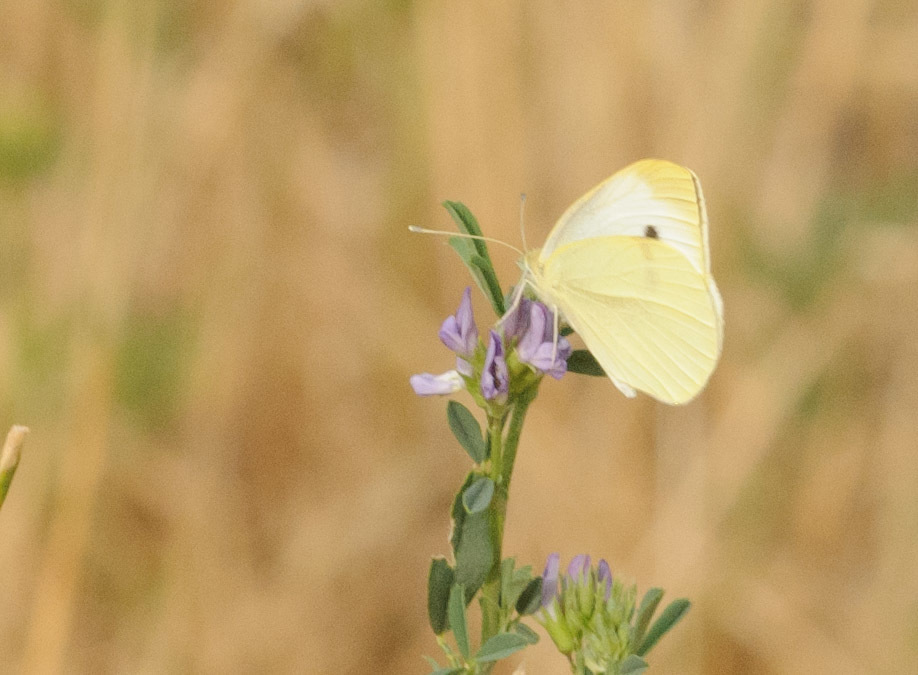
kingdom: Animalia
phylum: Arthropoda
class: Insecta
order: Lepidoptera
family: Pieridae
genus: Pieris
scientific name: Pieris rapae
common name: Small white
